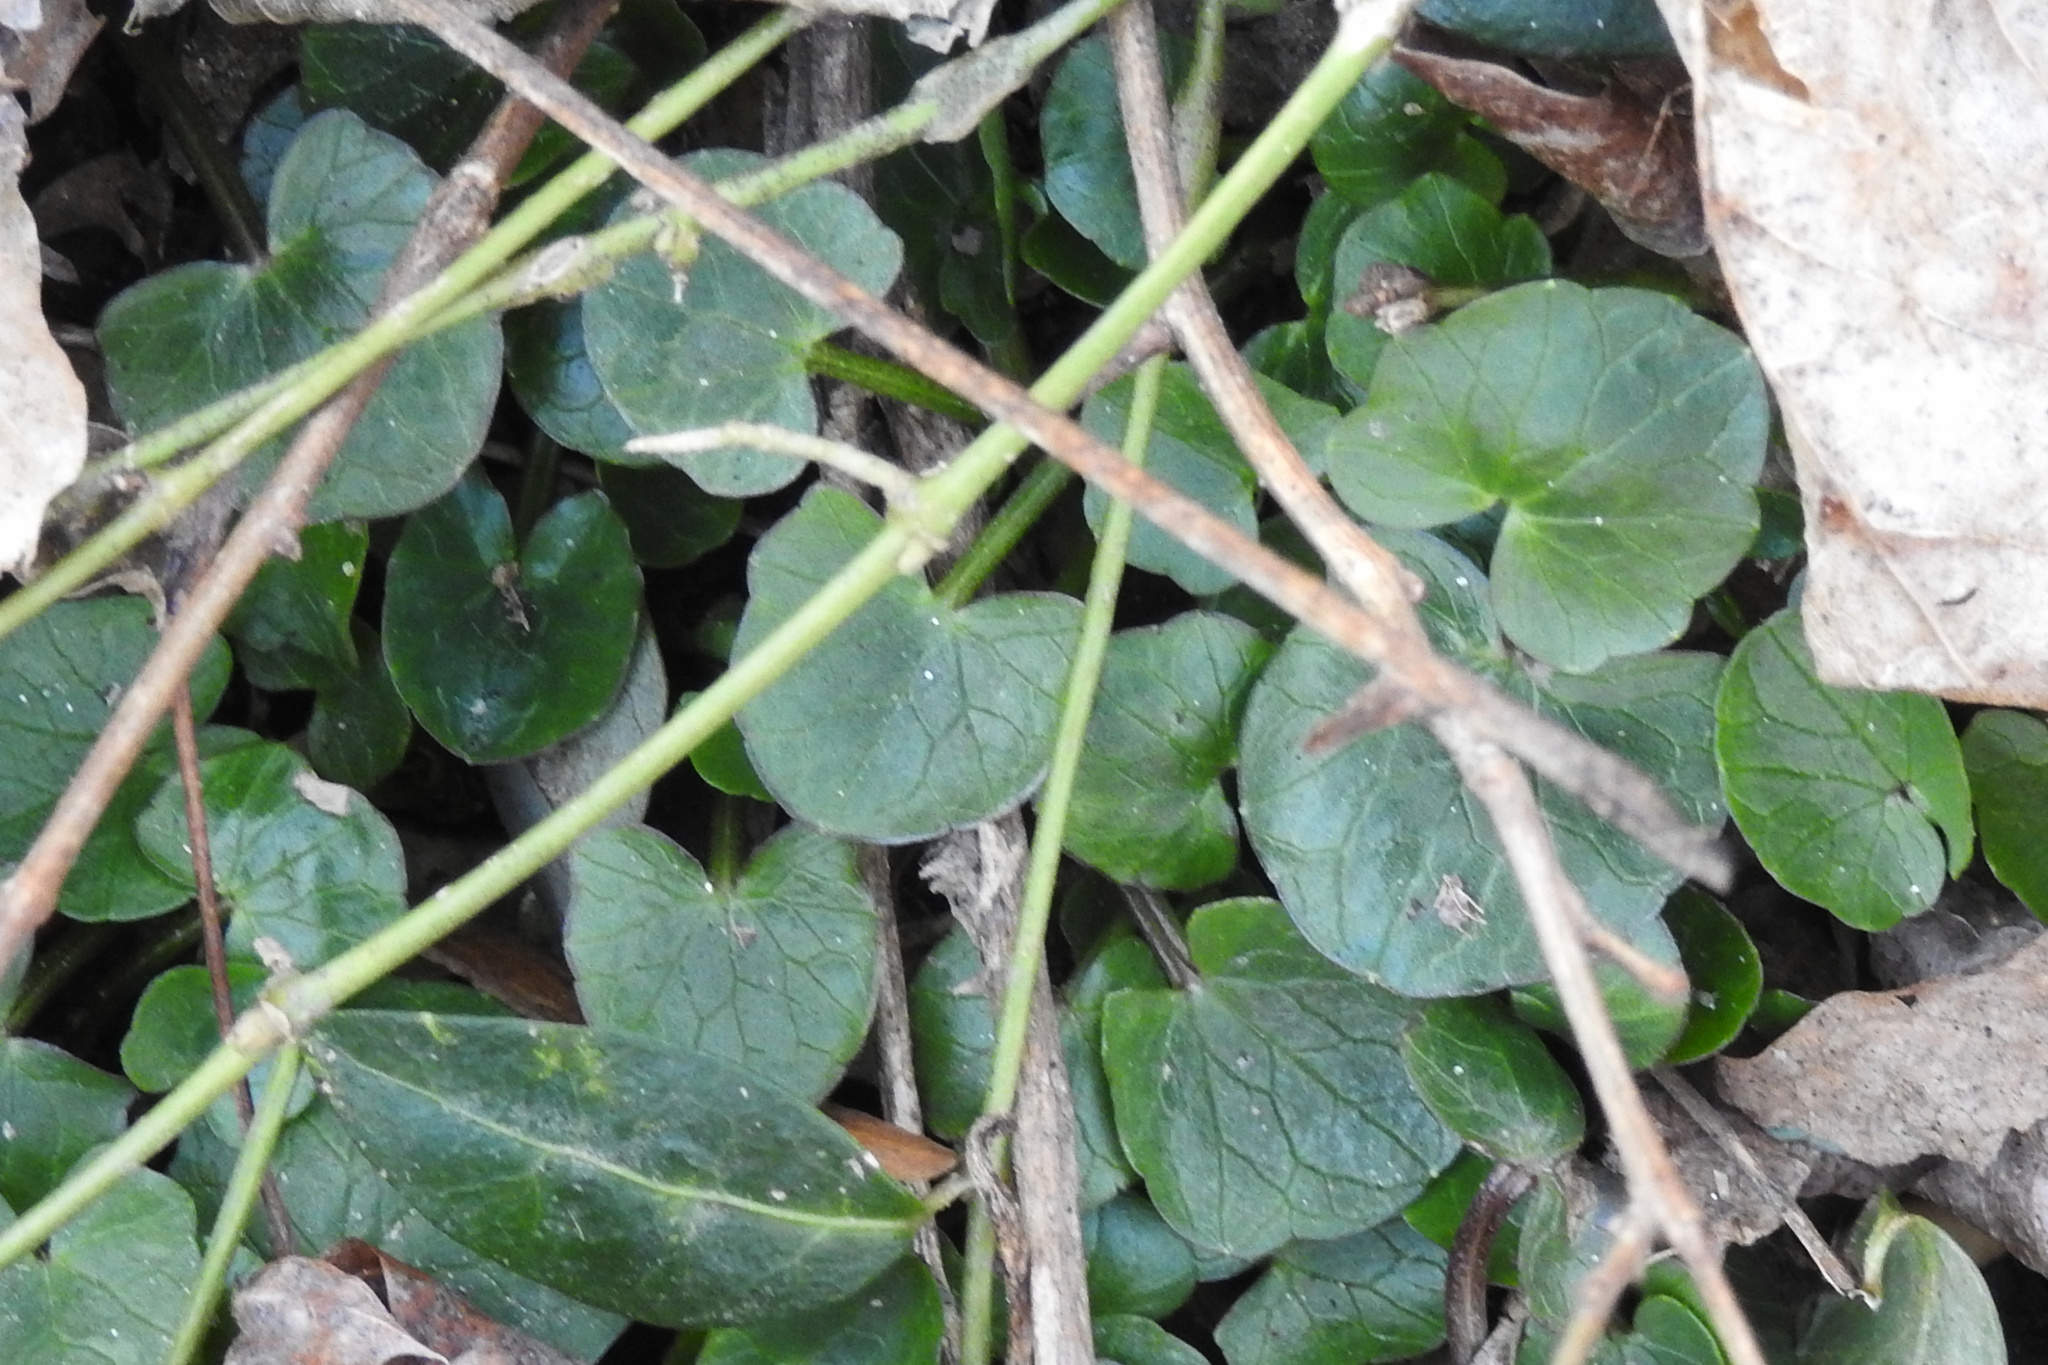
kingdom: Plantae
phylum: Tracheophyta
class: Magnoliopsida
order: Ranunculales
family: Ranunculaceae
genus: Ficaria
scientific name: Ficaria verna
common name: Lesser celandine
